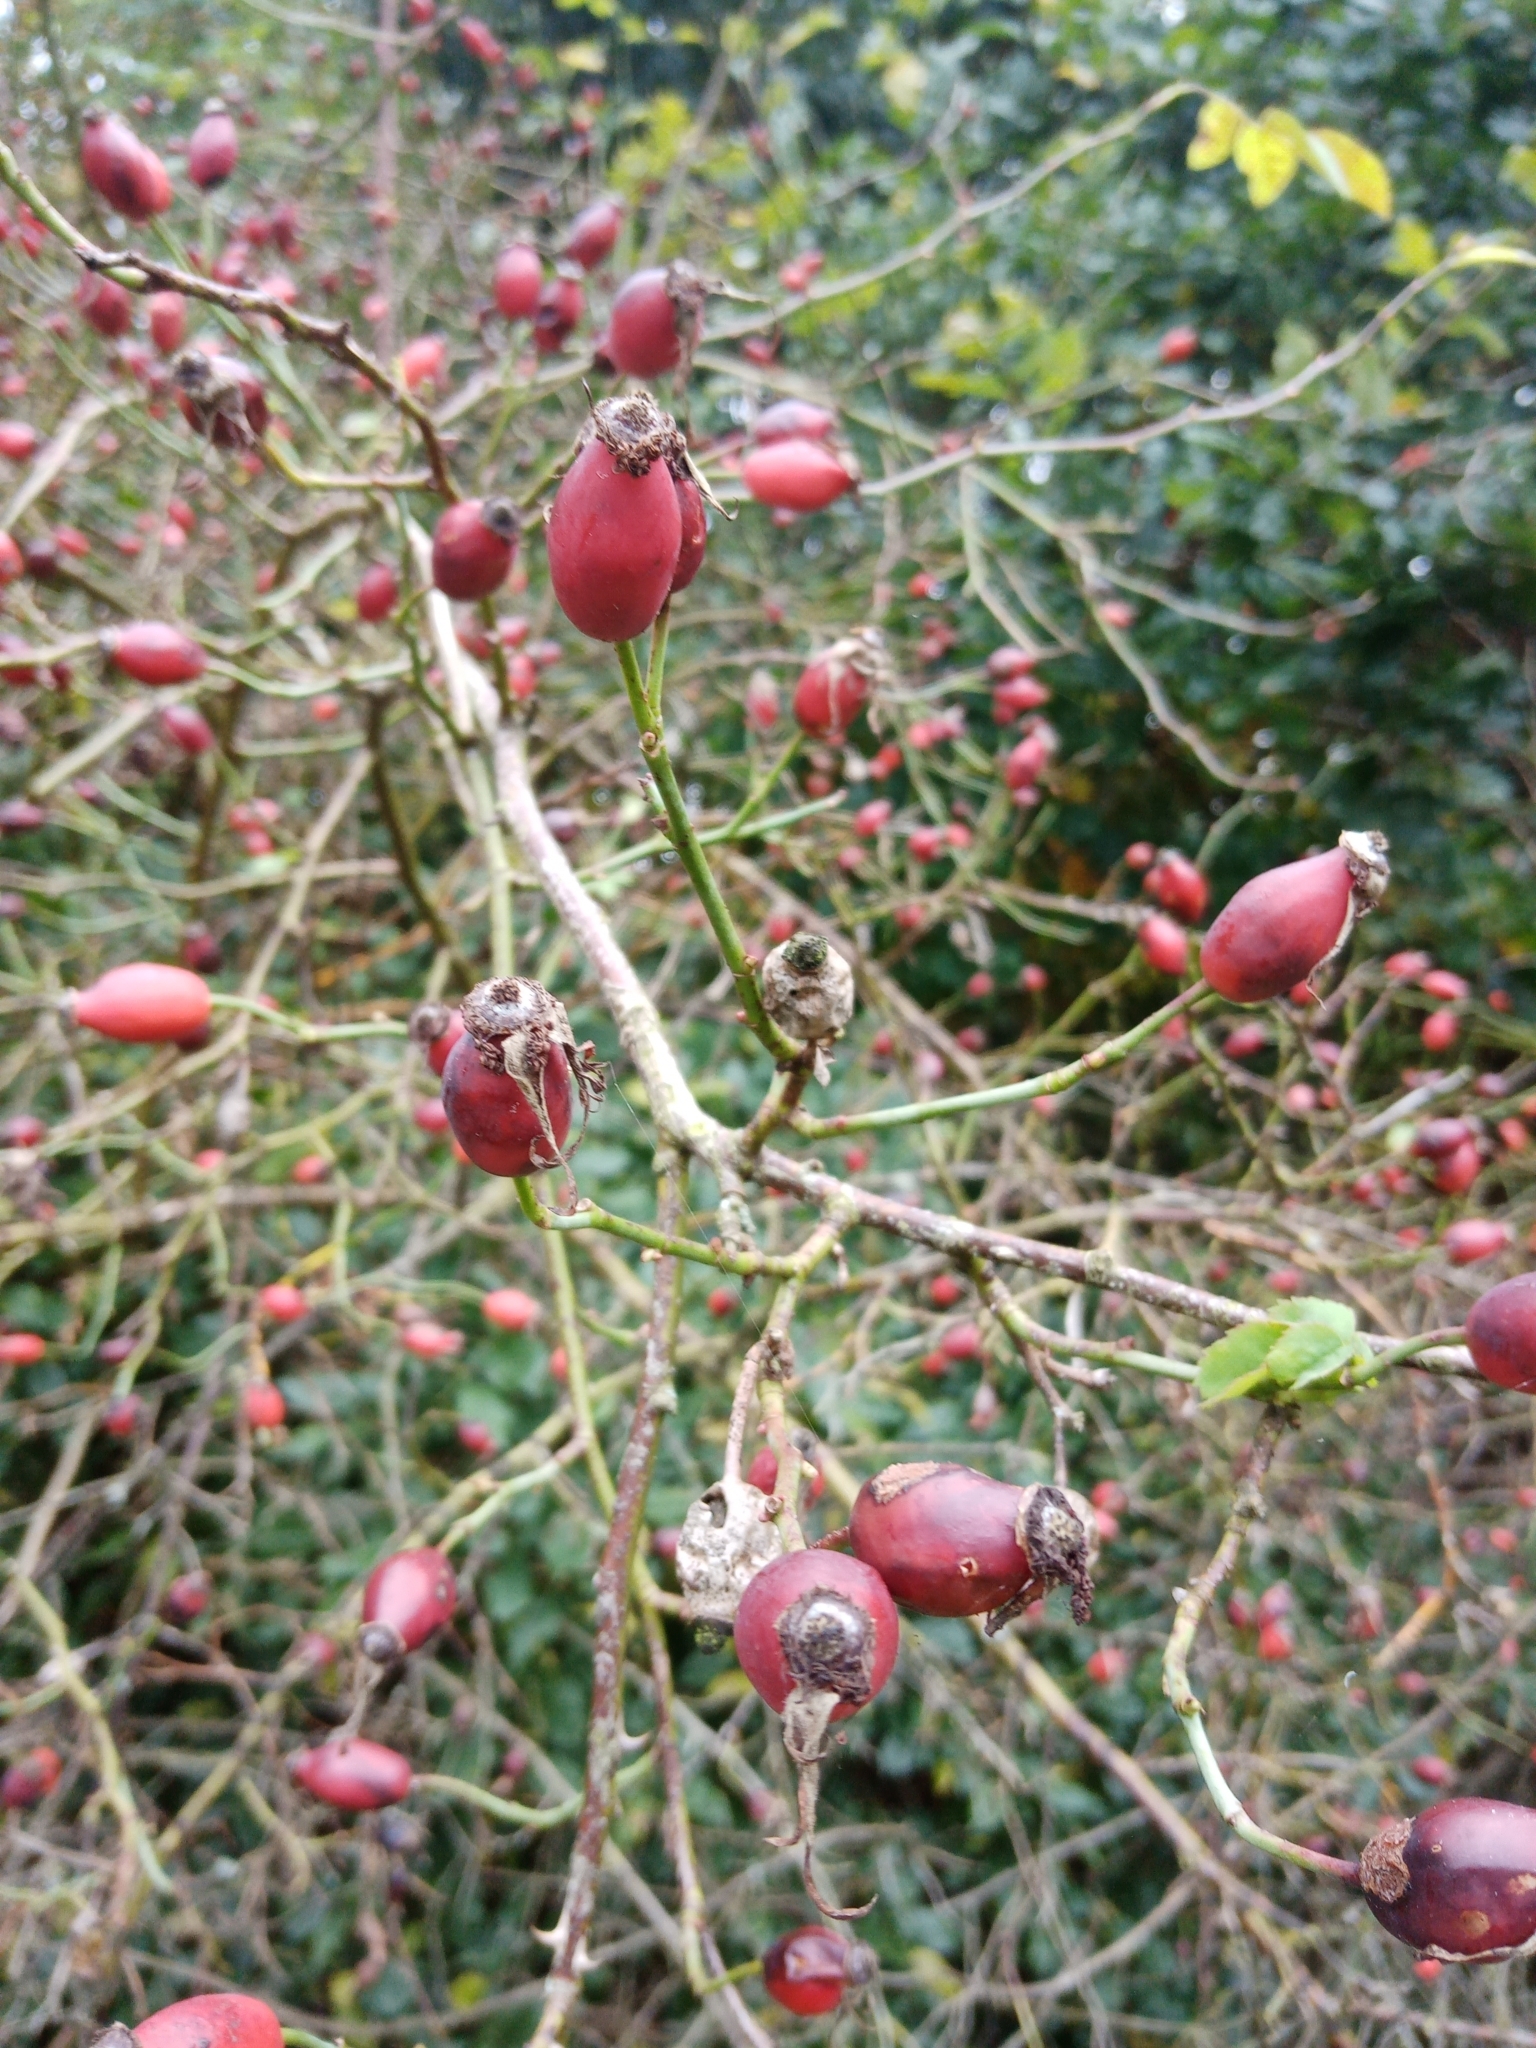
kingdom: Plantae
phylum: Tracheophyta
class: Magnoliopsida
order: Rosales
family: Rosaceae
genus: Rosa
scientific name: Rosa canina
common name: Dog rose
